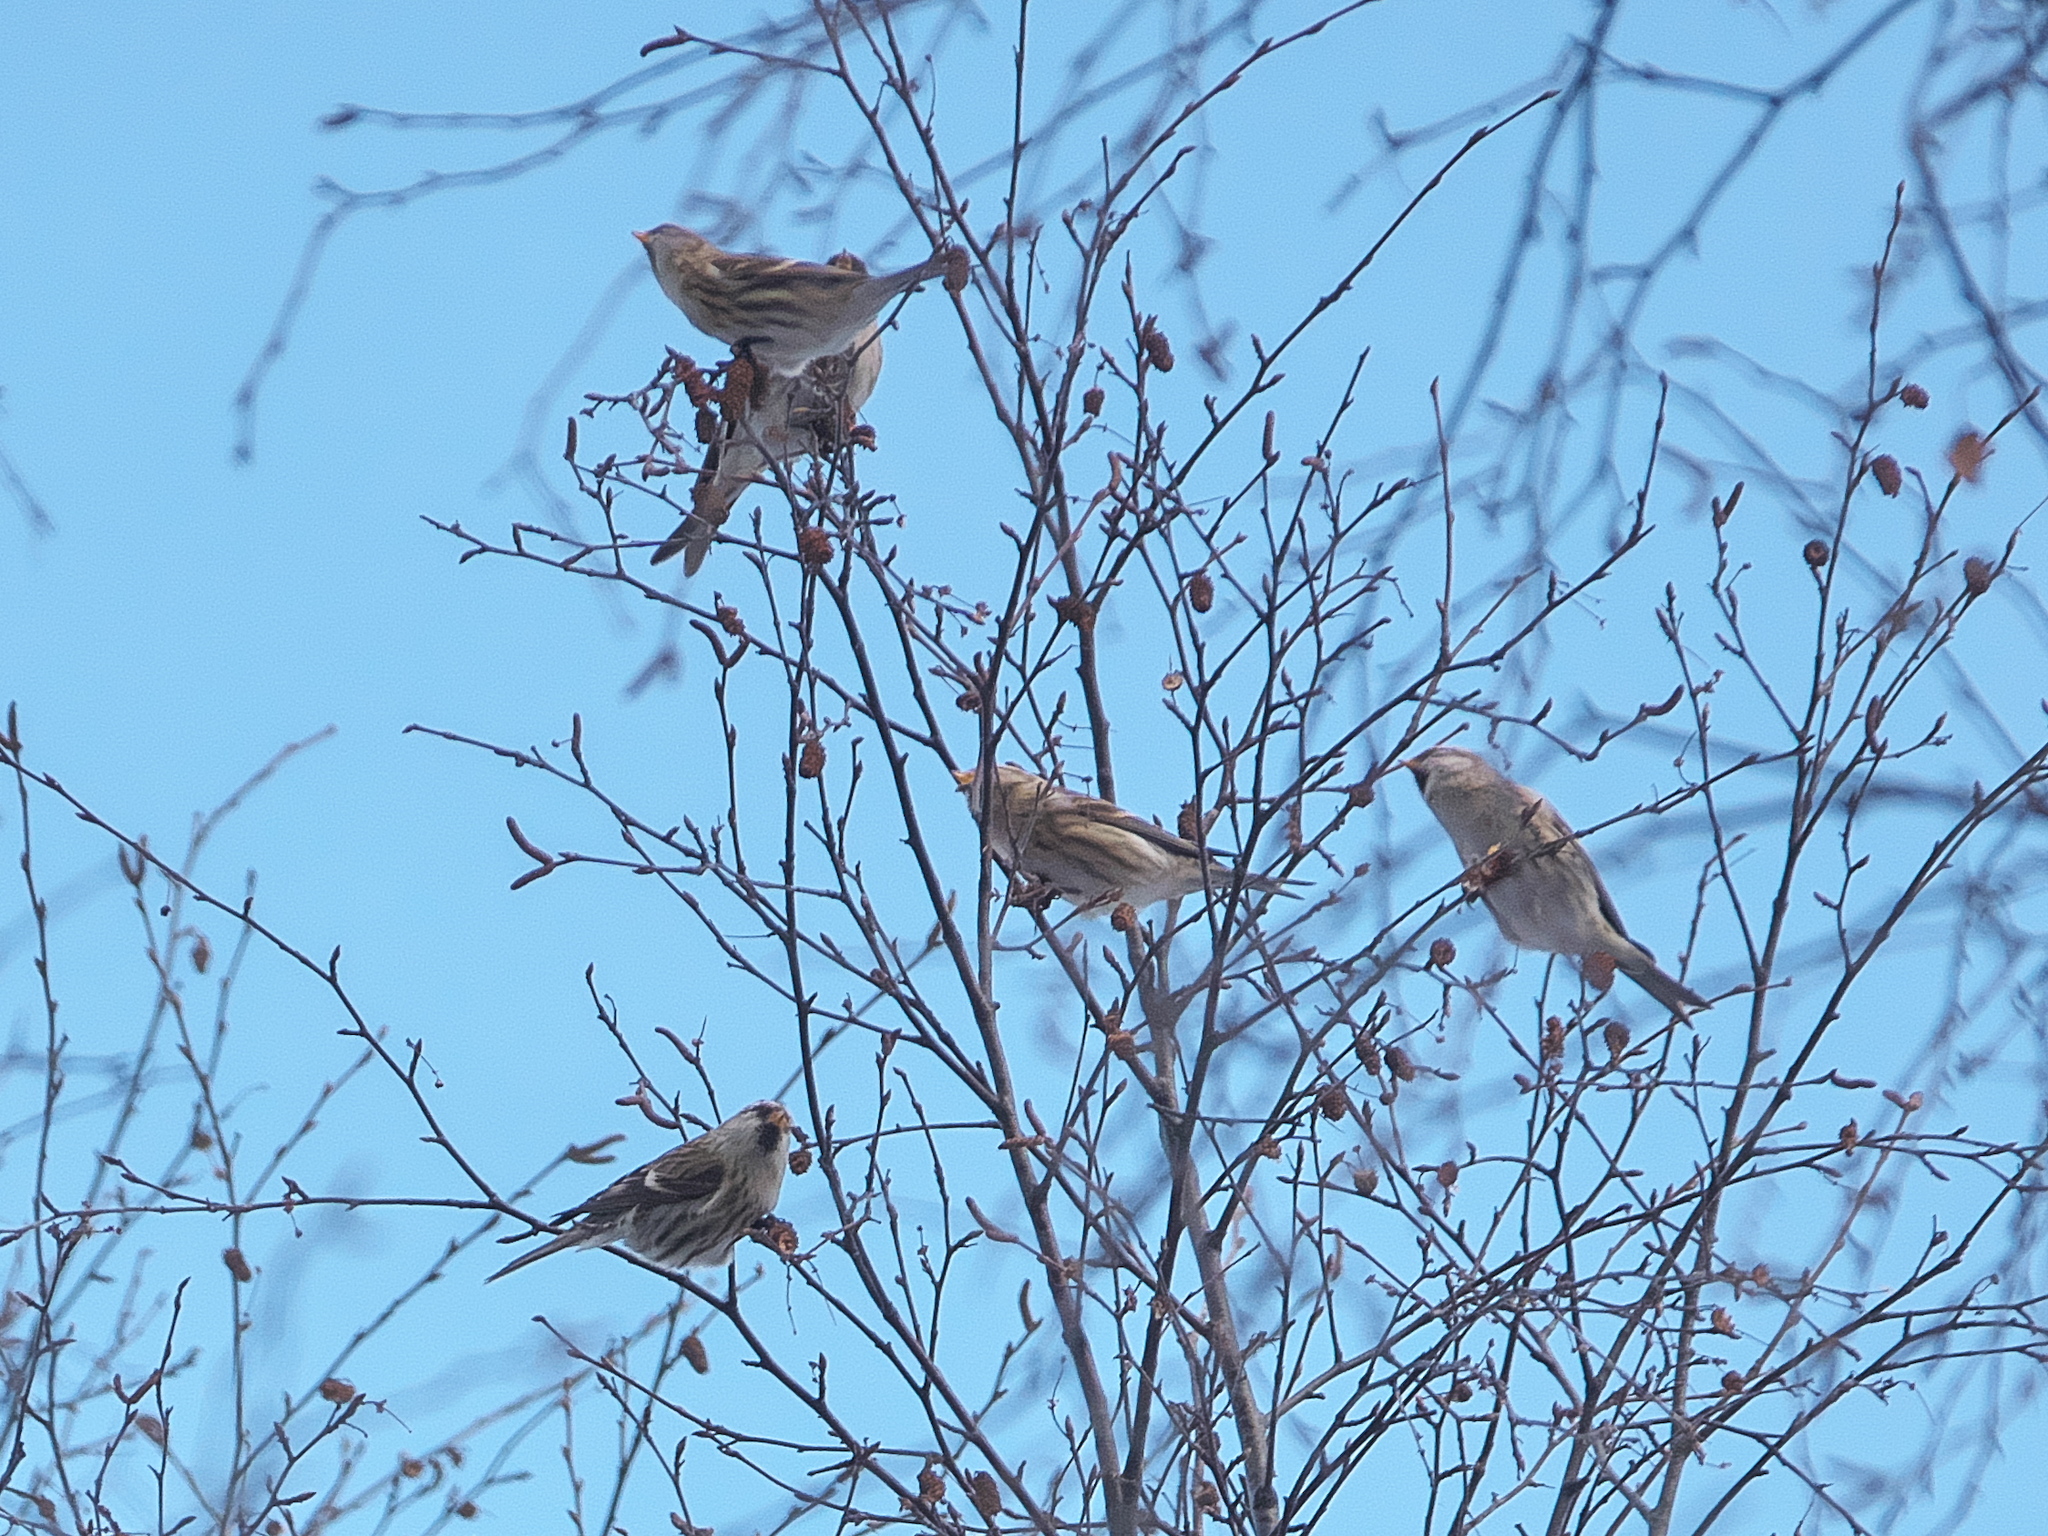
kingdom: Animalia
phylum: Chordata
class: Aves
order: Passeriformes
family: Fringillidae
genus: Acanthis
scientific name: Acanthis flammea
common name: Common redpoll
